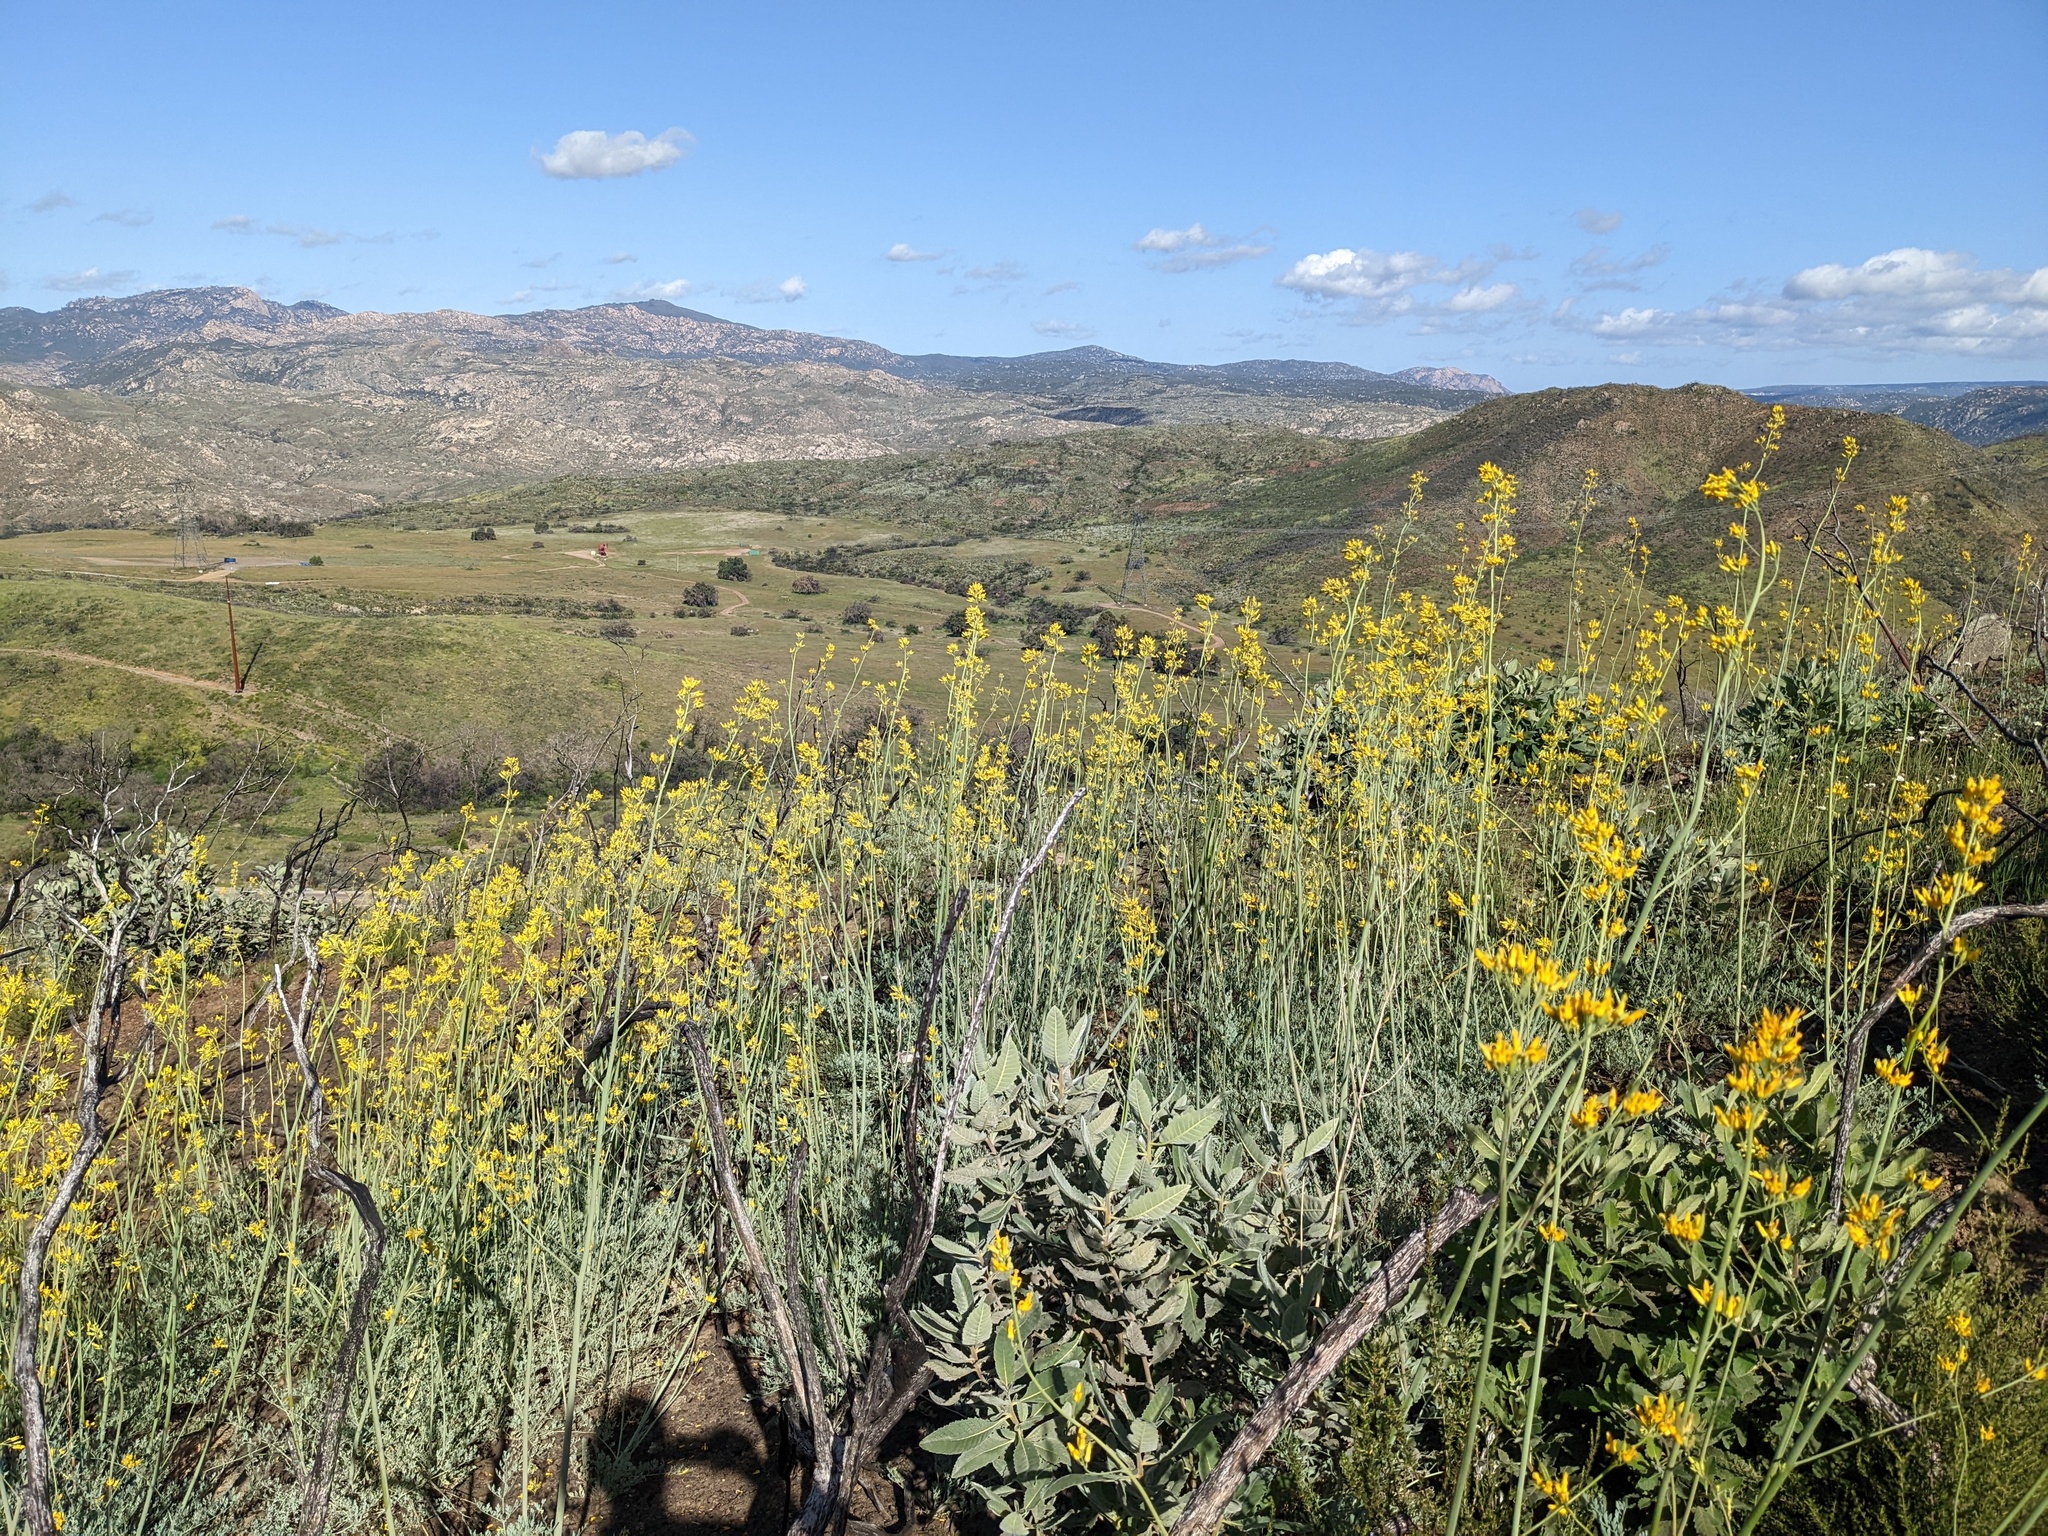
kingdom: Plantae
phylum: Tracheophyta
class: Magnoliopsida
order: Ranunculales
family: Papaveraceae
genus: Ehrendorferia
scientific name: Ehrendorferia chrysantha
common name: Golden eardrops
